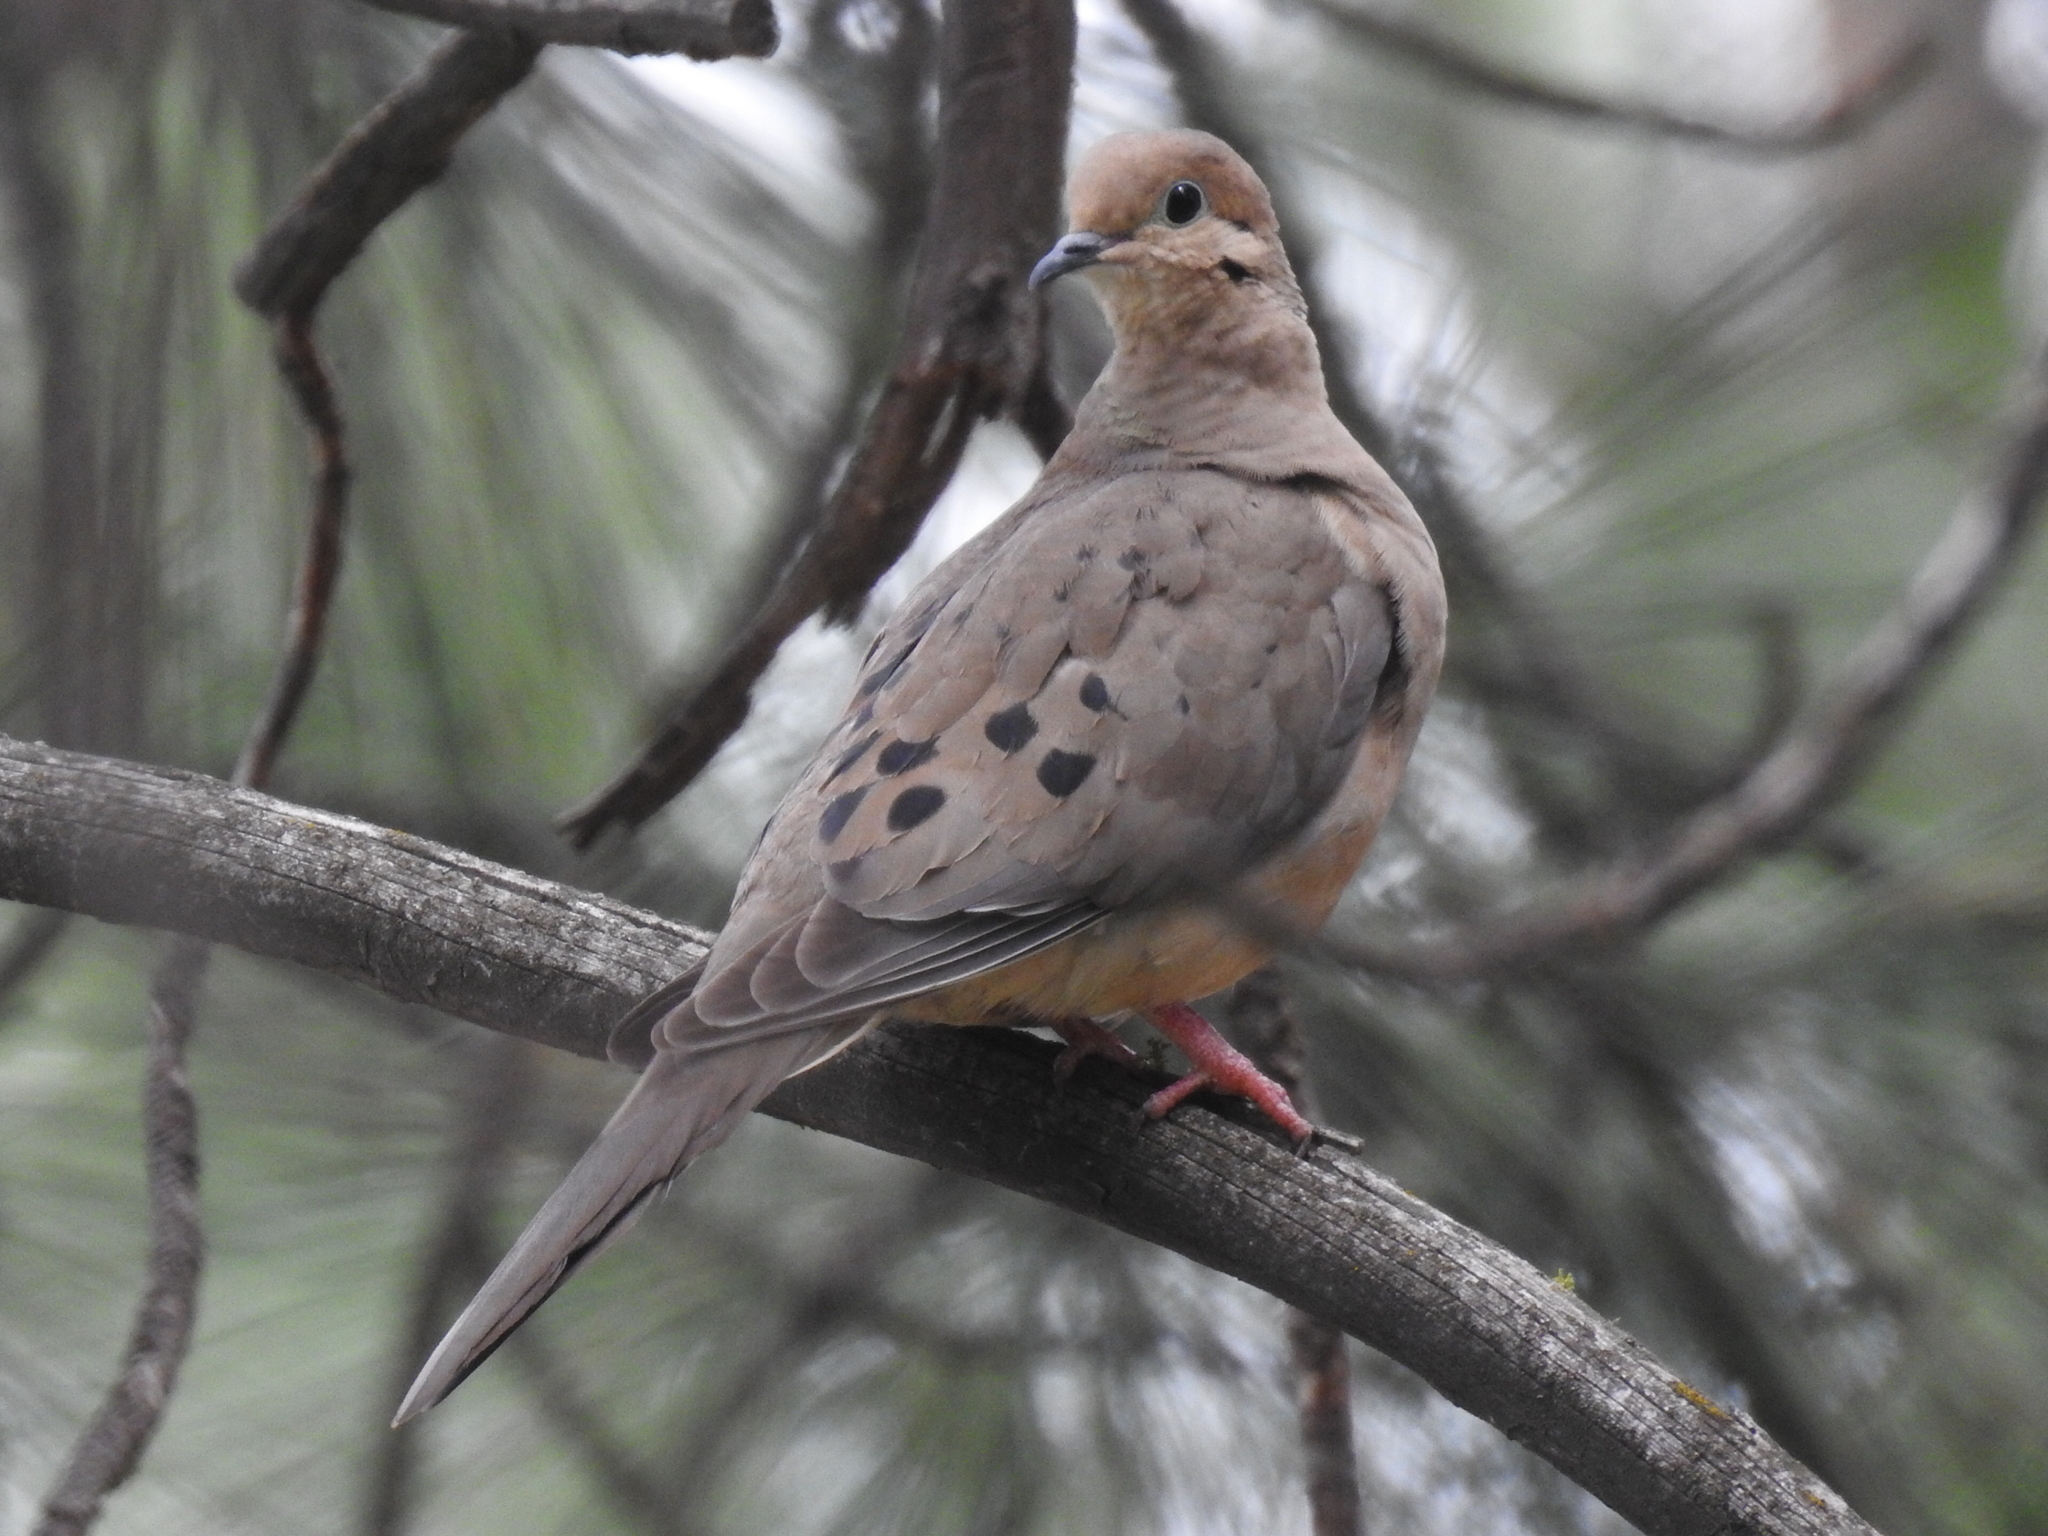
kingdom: Animalia
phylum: Chordata
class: Aves
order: Columbiformes
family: Columbidae
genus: Zenaida
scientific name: Zenaida macroura
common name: Mourning dove
